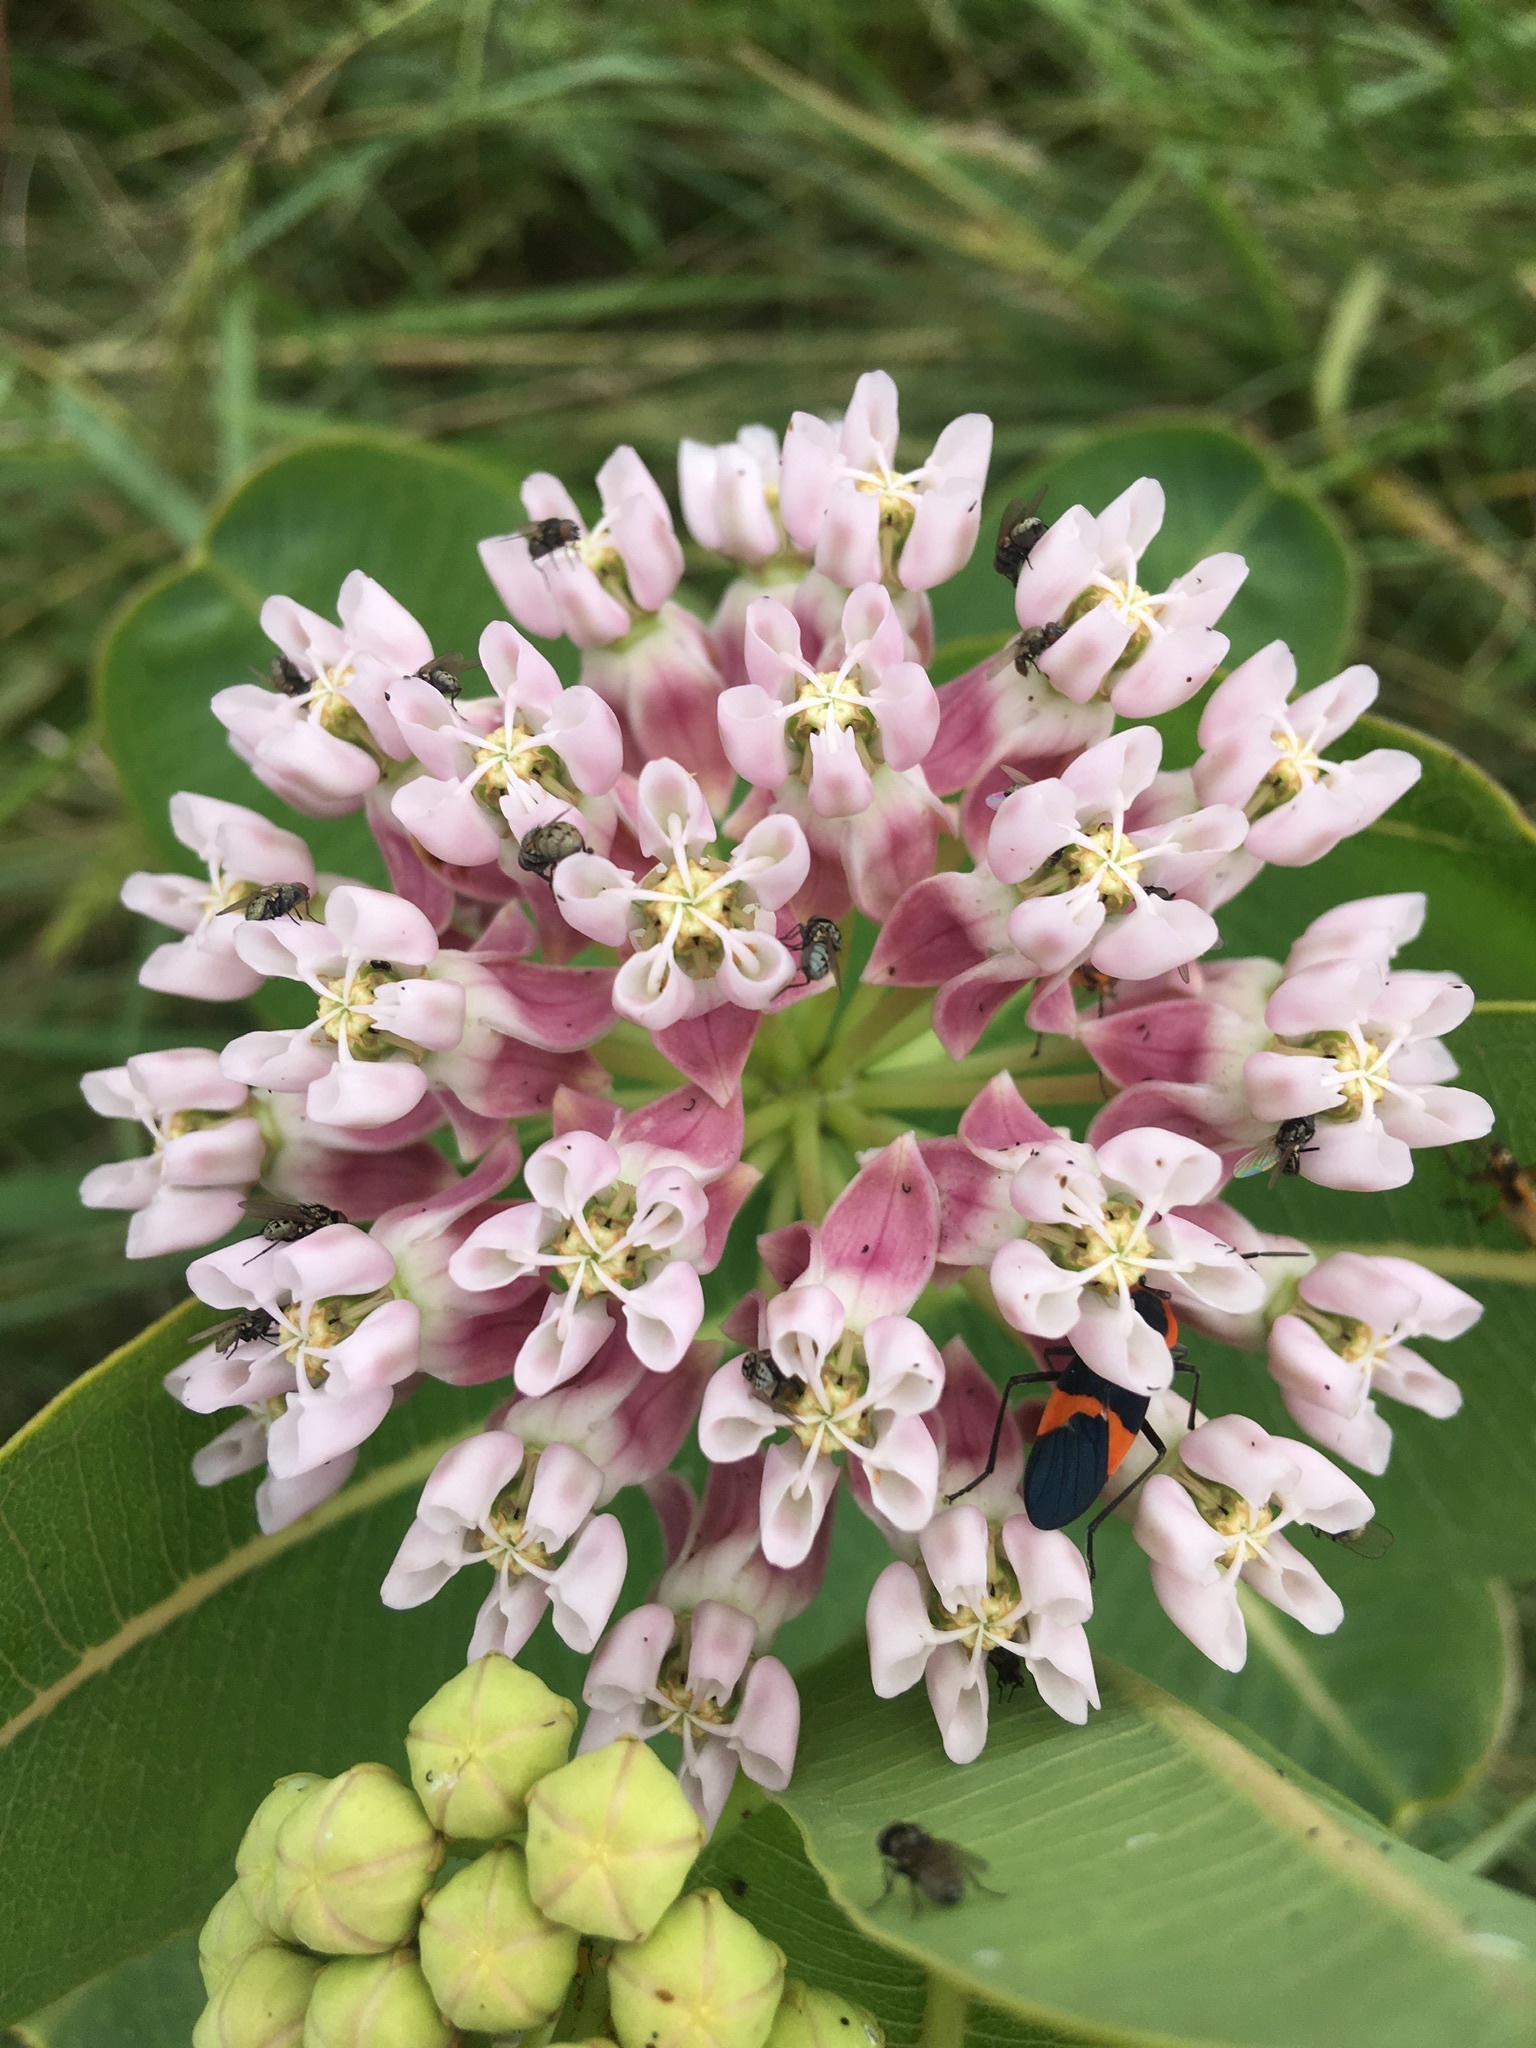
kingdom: Plantae
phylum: Tracheophyta
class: Magnoliopsida
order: Gentianales
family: Apocynaceae
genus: Asclepias
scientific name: Asclepias sullivantii
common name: Prairie milkweed
